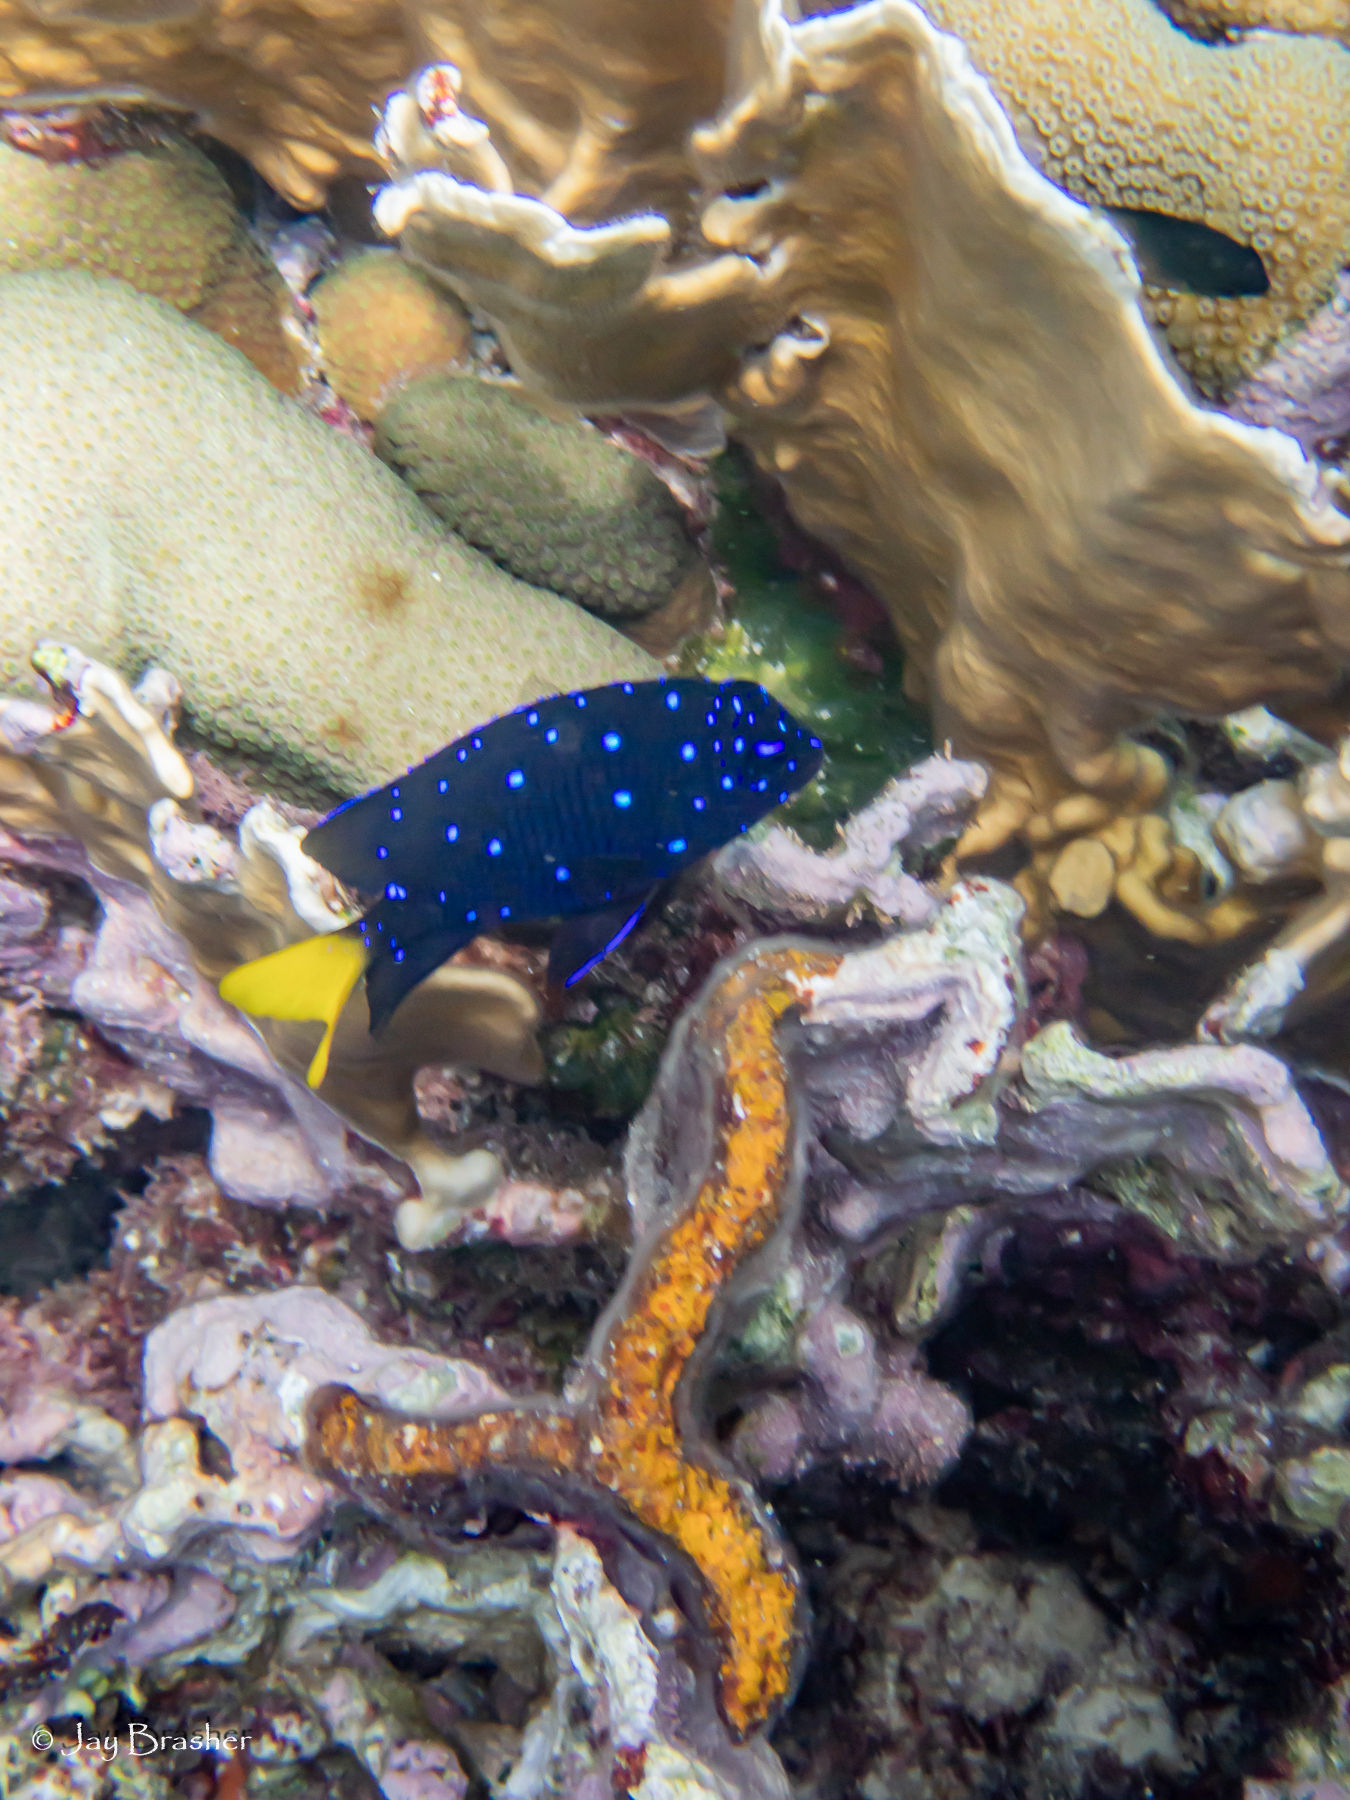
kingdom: Animalia
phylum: Cnidaria
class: Hydrozoa
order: Anthoathecata
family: Milleporidae
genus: Millepora
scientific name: Millepora complanata
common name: Bladed fire coral
